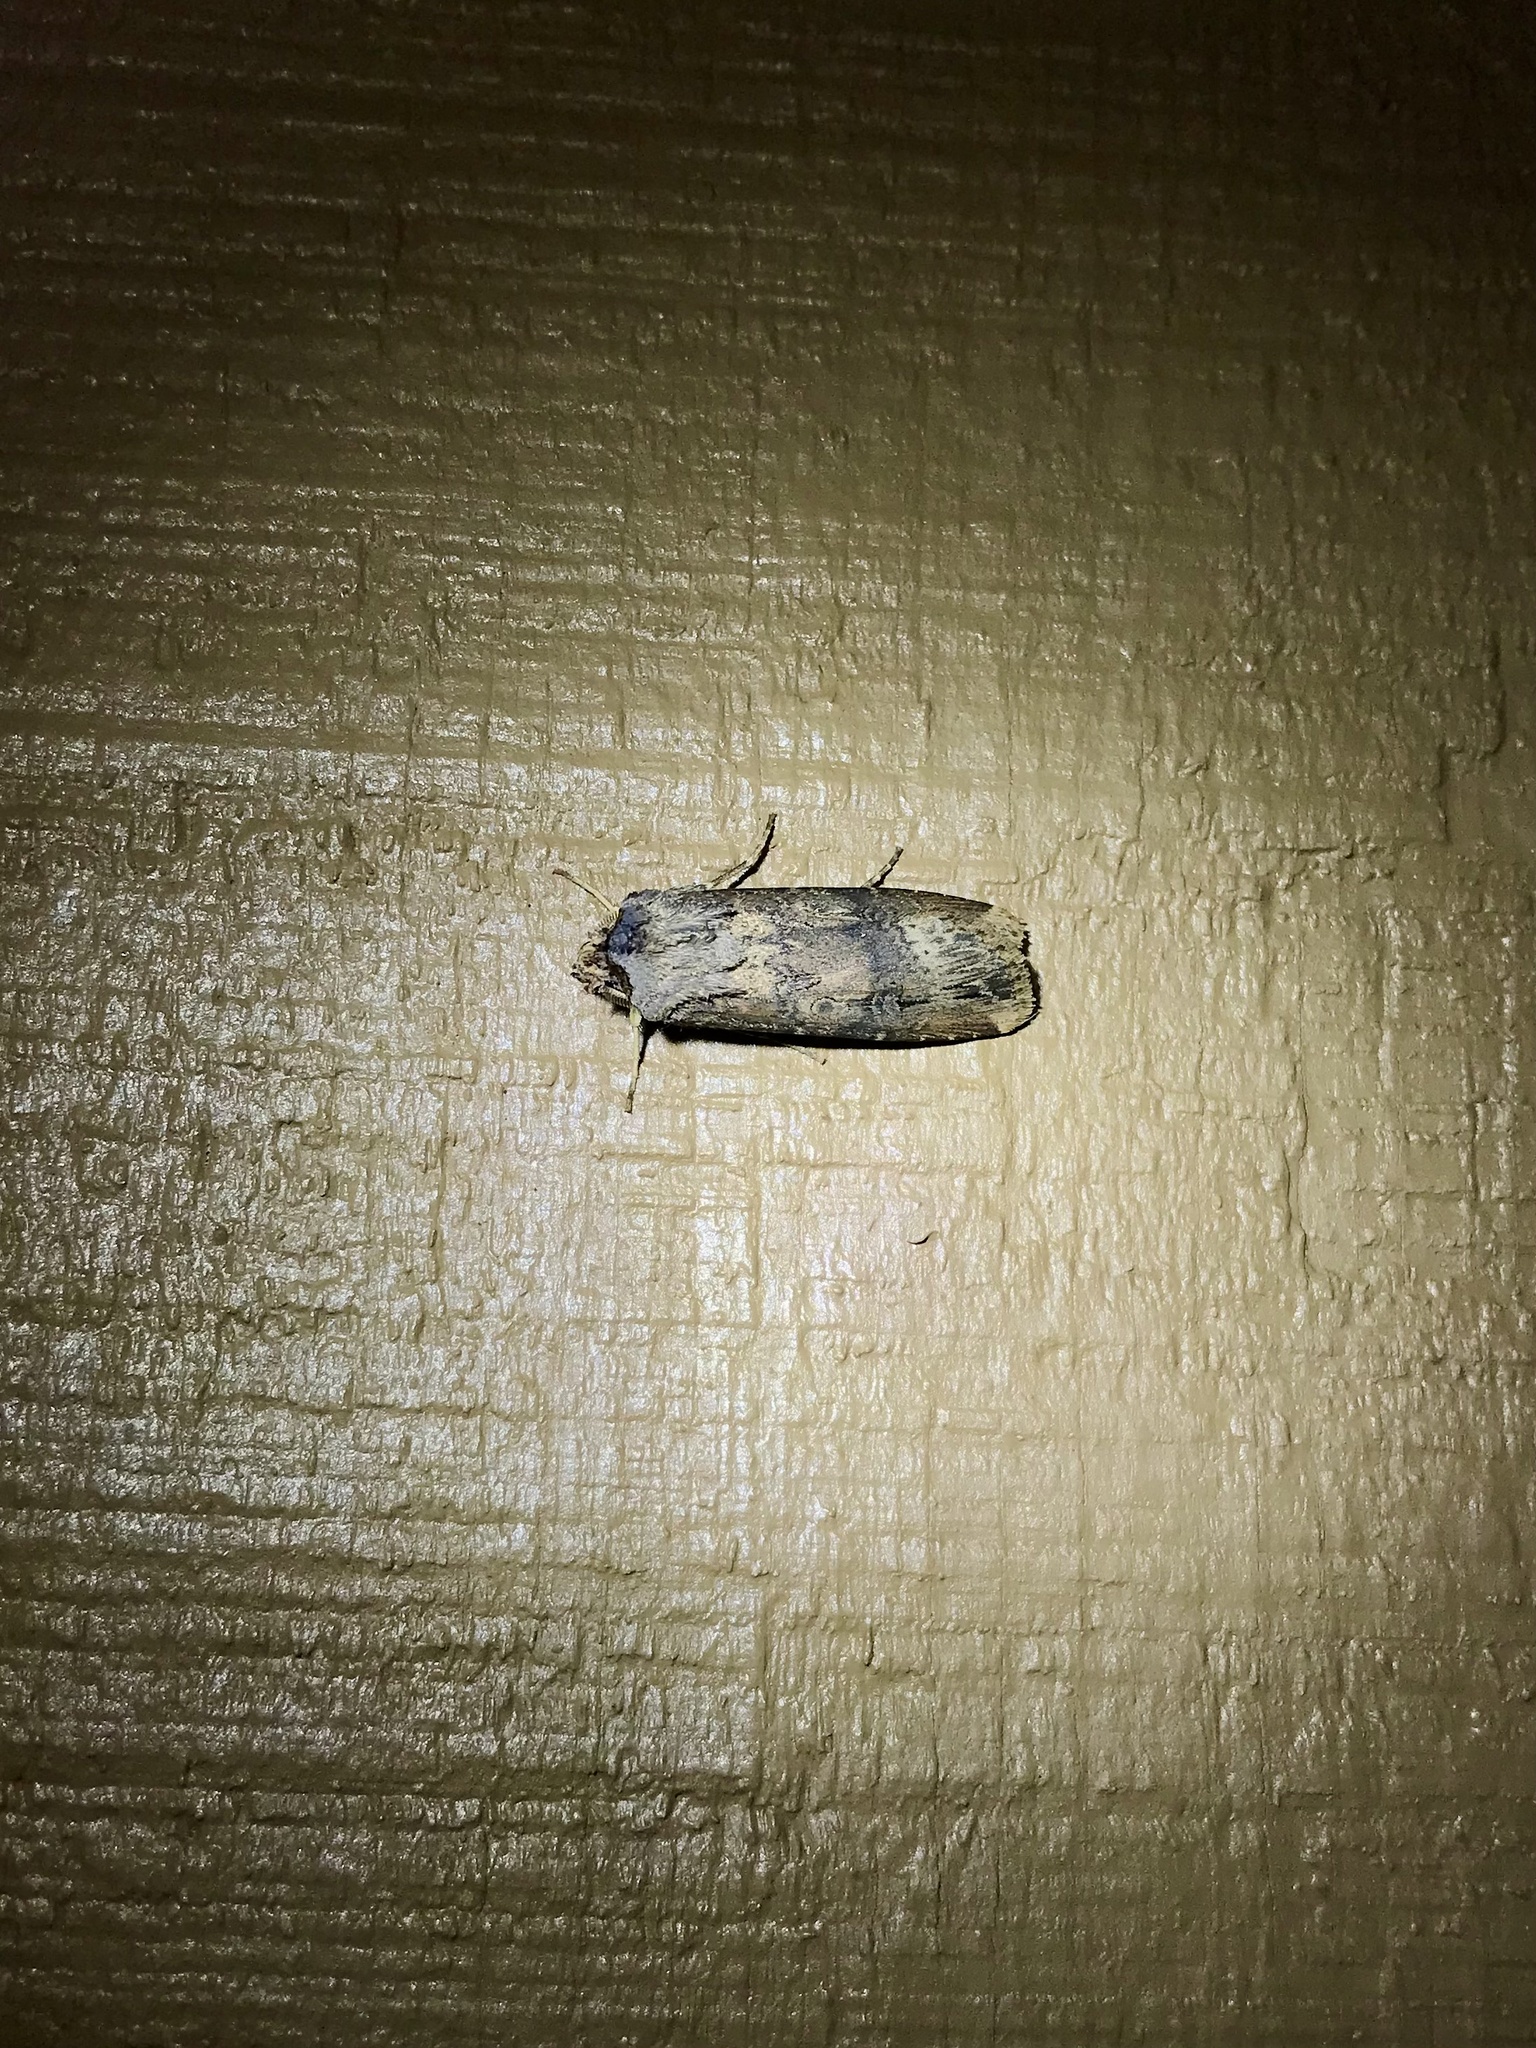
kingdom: Animalia
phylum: Arthropoda
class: Insecta
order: Lepidoptera
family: Noctuidae
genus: Agrotis
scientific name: Agrotis ipsilon
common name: Dark sword-grass
